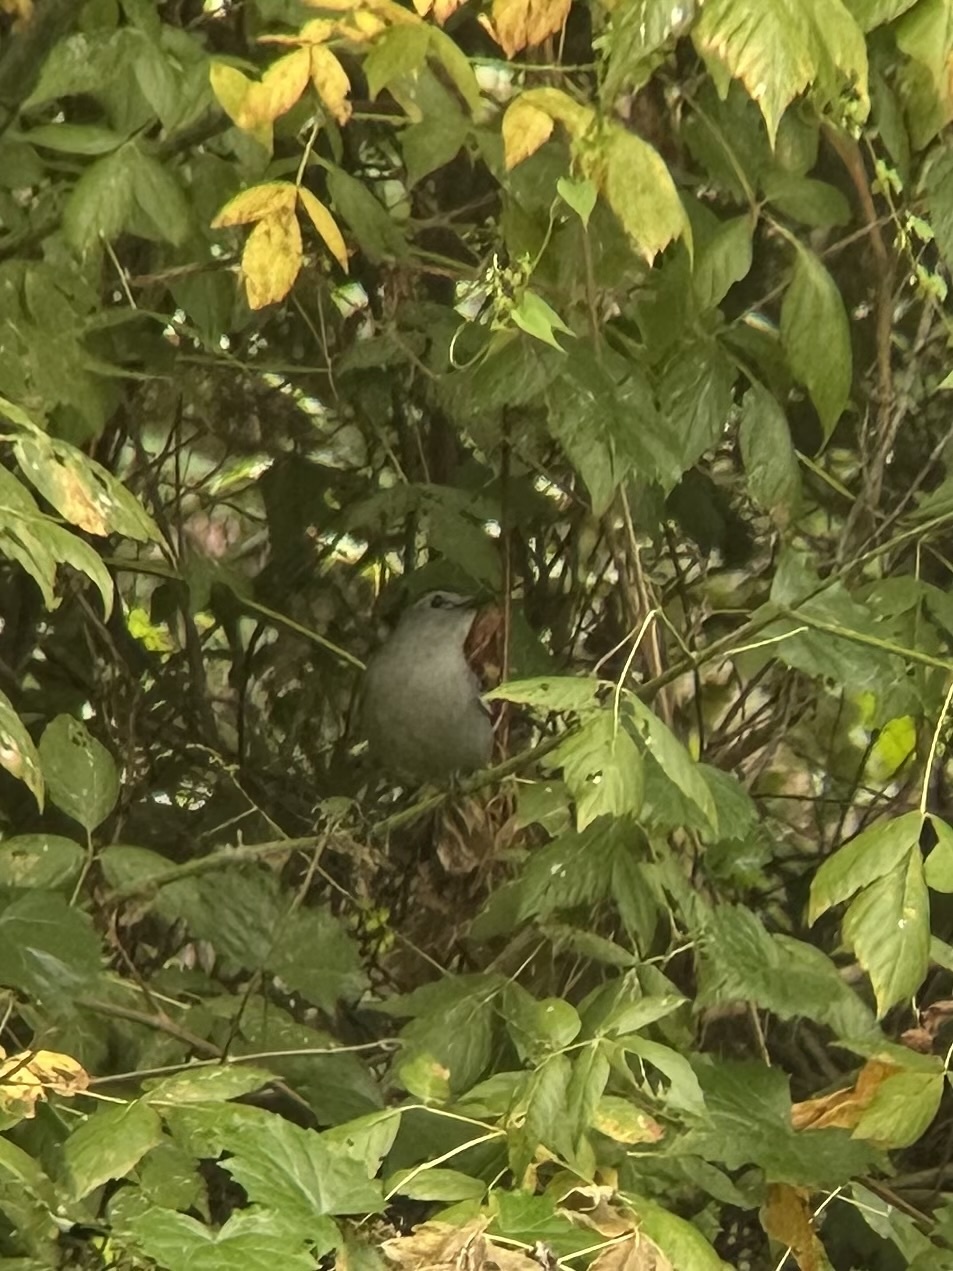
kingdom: Animalia
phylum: Chordata
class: Aves
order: Passeriformes
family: Mimidae
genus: Dumetella
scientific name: Dumetella carolinensis
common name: Gray catbird
